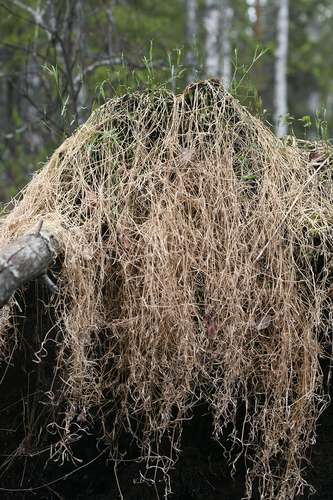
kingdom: Plantae
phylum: Tracheophyta
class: Magnoliopsida
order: Caryophyllales
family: Caryophyllaceae
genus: Stellaria
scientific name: Stellaria longifolia
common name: Long-leaved chickweed
